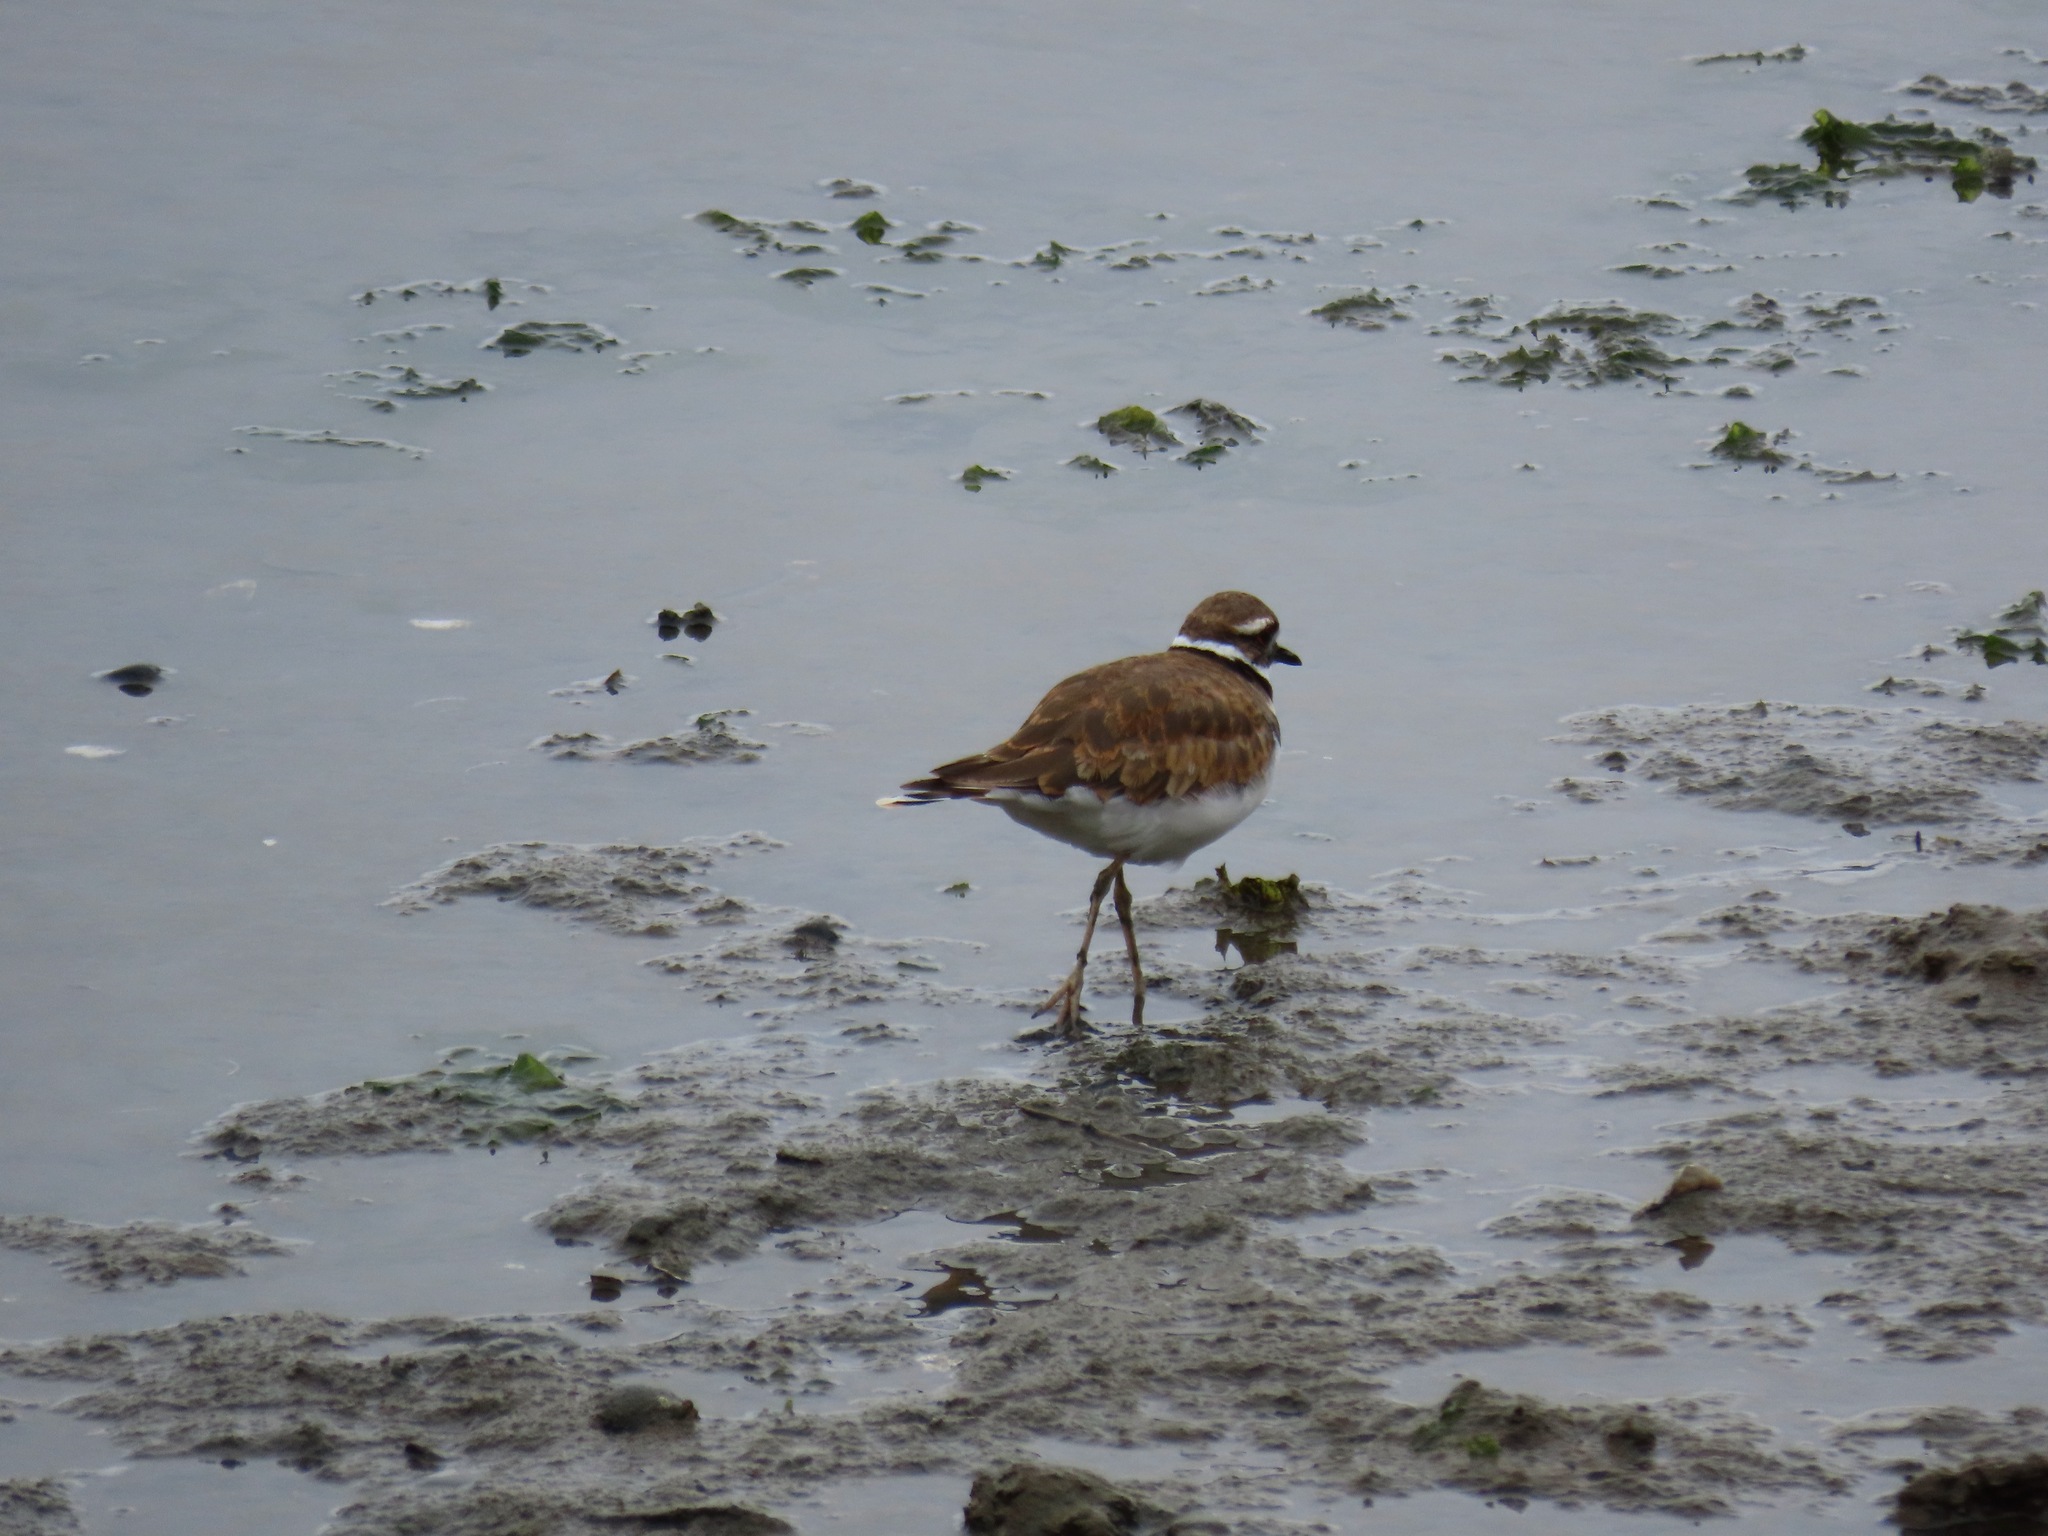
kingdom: Animalia
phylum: Chordata
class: Aves
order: Charadriiformes
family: Charadriidae
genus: Charadrius
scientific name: Charadrius vociferus
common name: Killdeer
